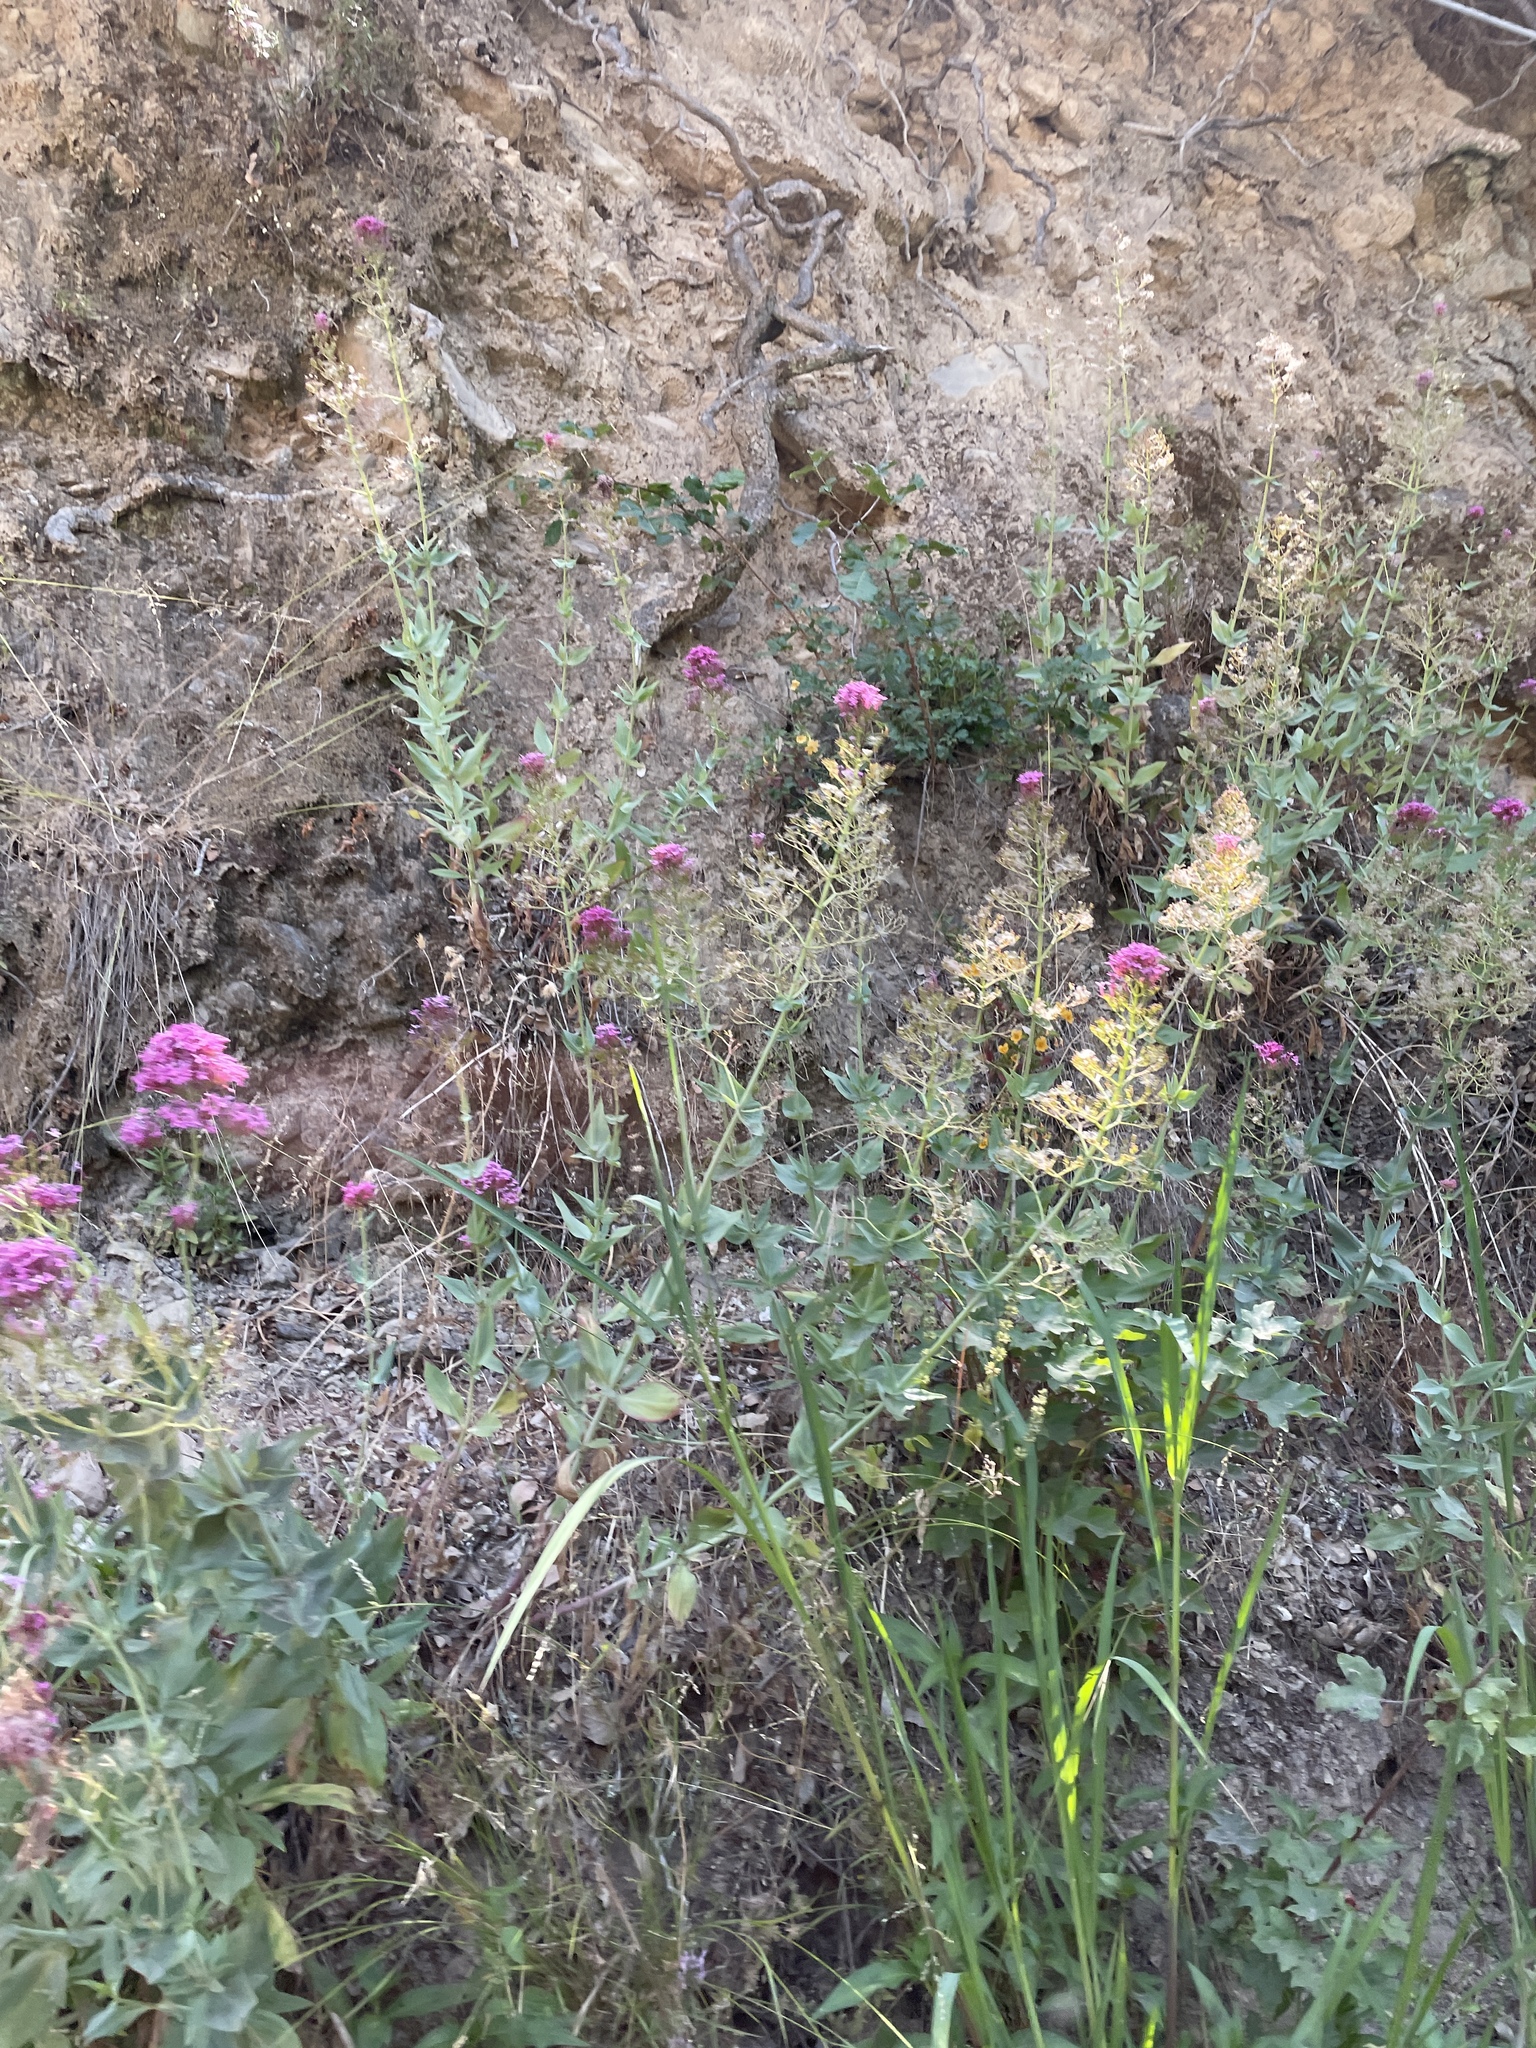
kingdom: Plantae
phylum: Tracheophyta
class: Magnoliopsida
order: Dipsacales
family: Caprifoliaceae
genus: Centranthus
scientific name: Centranthus ruber
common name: Red valerian
